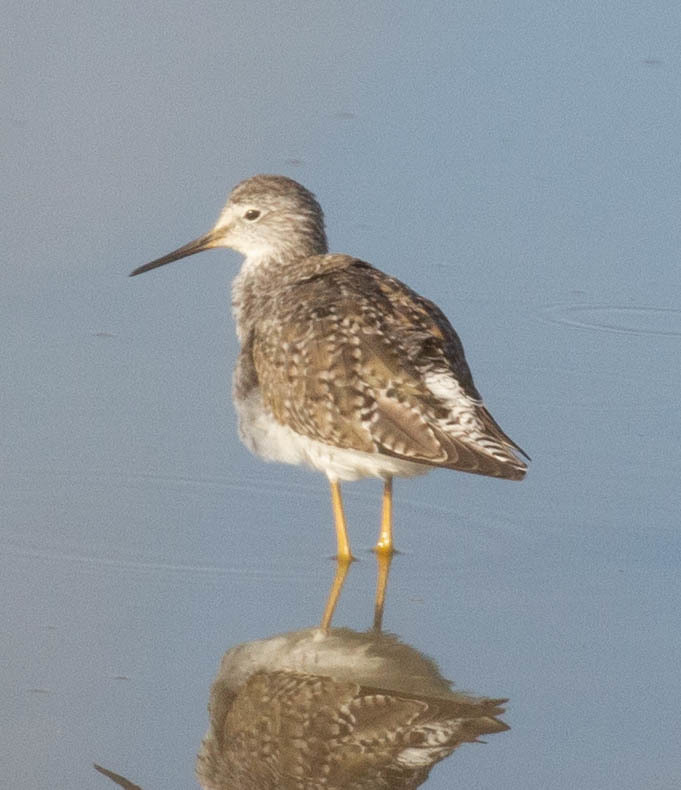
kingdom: Animalia
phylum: Chordata
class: Aves
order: Charadriiformes
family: Scolopacidae
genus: Tringa
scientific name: Tringa flavipes
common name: Lesser yellowlegs
